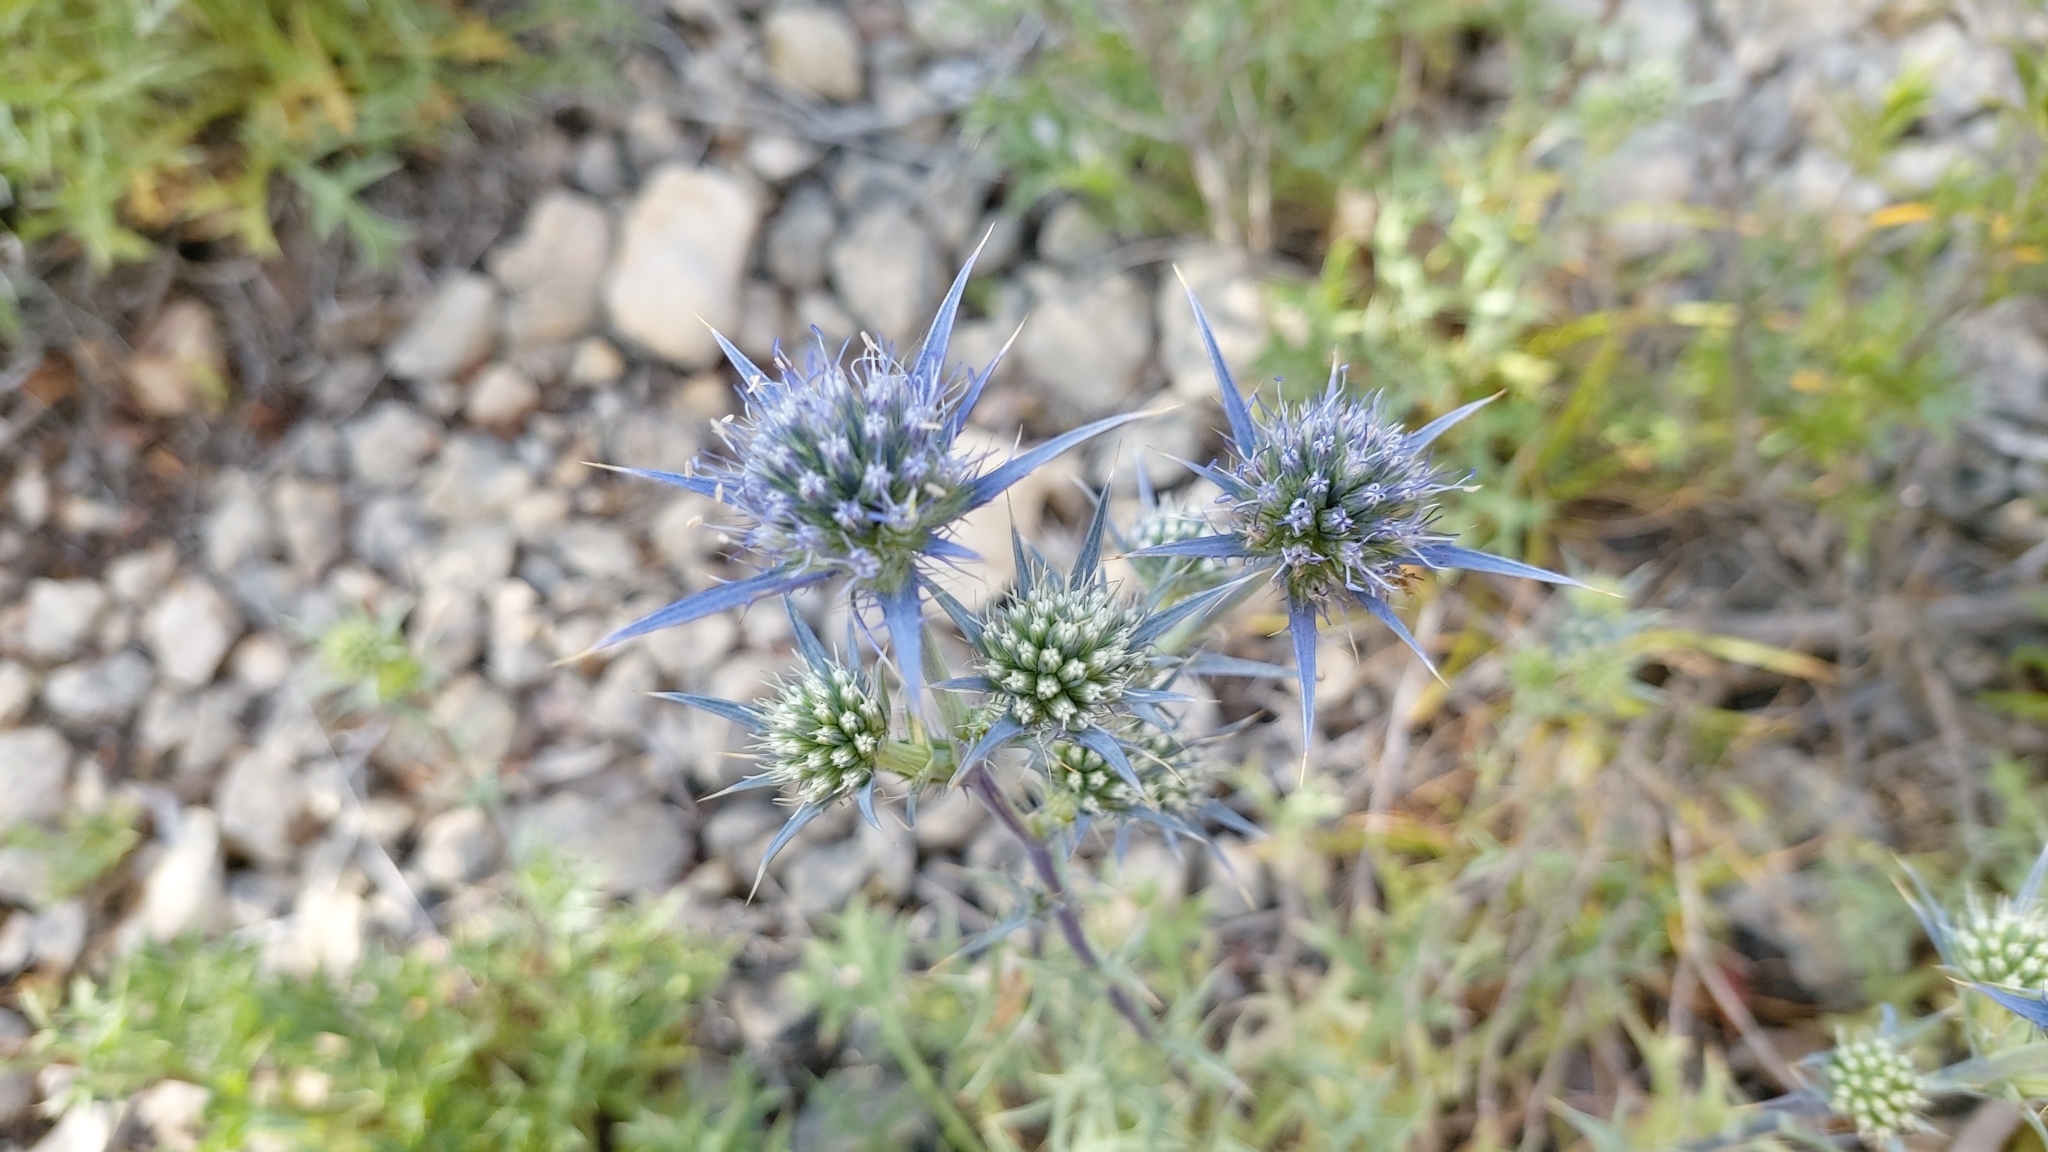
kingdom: Plantae
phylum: Tracheophyta
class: Magnoliopsida
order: Apiales
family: Apiaceae
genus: Eryngium
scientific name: Eryngium dilatatum
